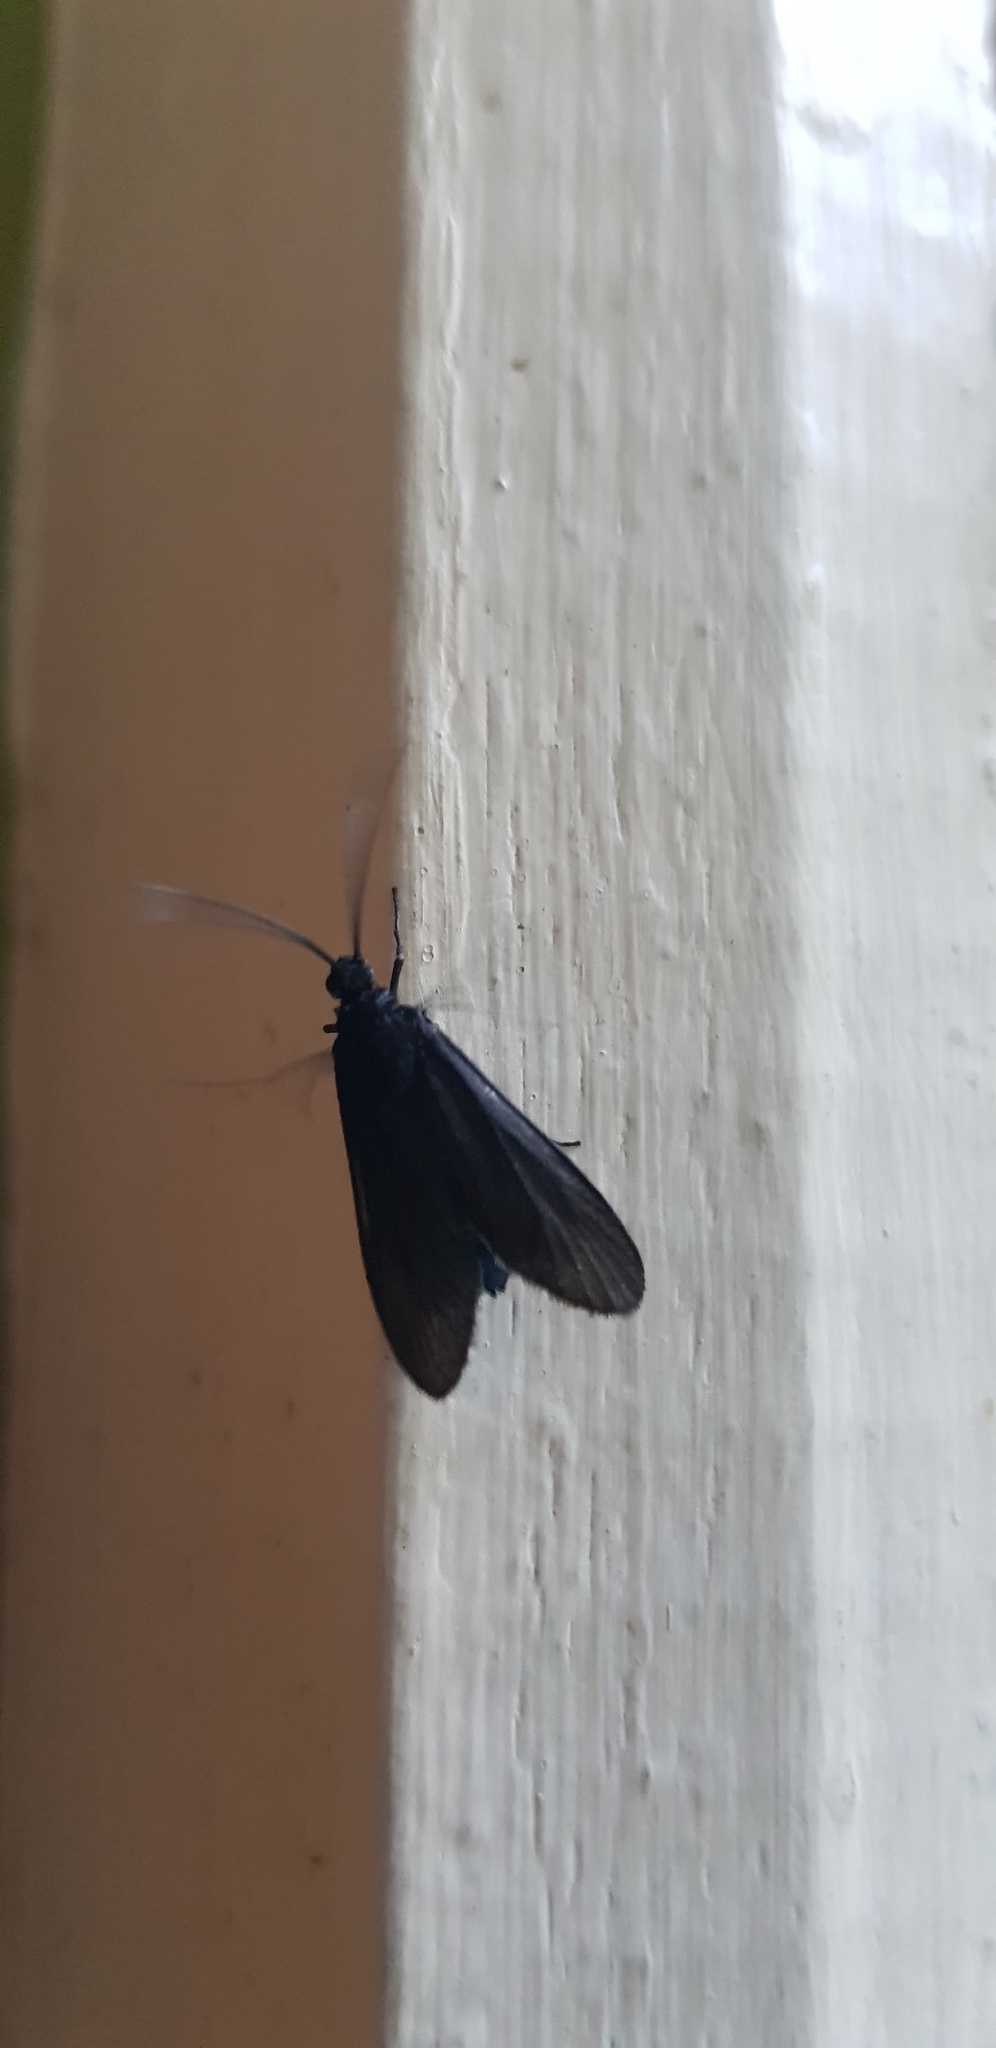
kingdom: Animalia
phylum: Arthropoda
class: Insecta
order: Lepidoptera
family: Zygaenidae
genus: Artona
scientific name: Artona martini
